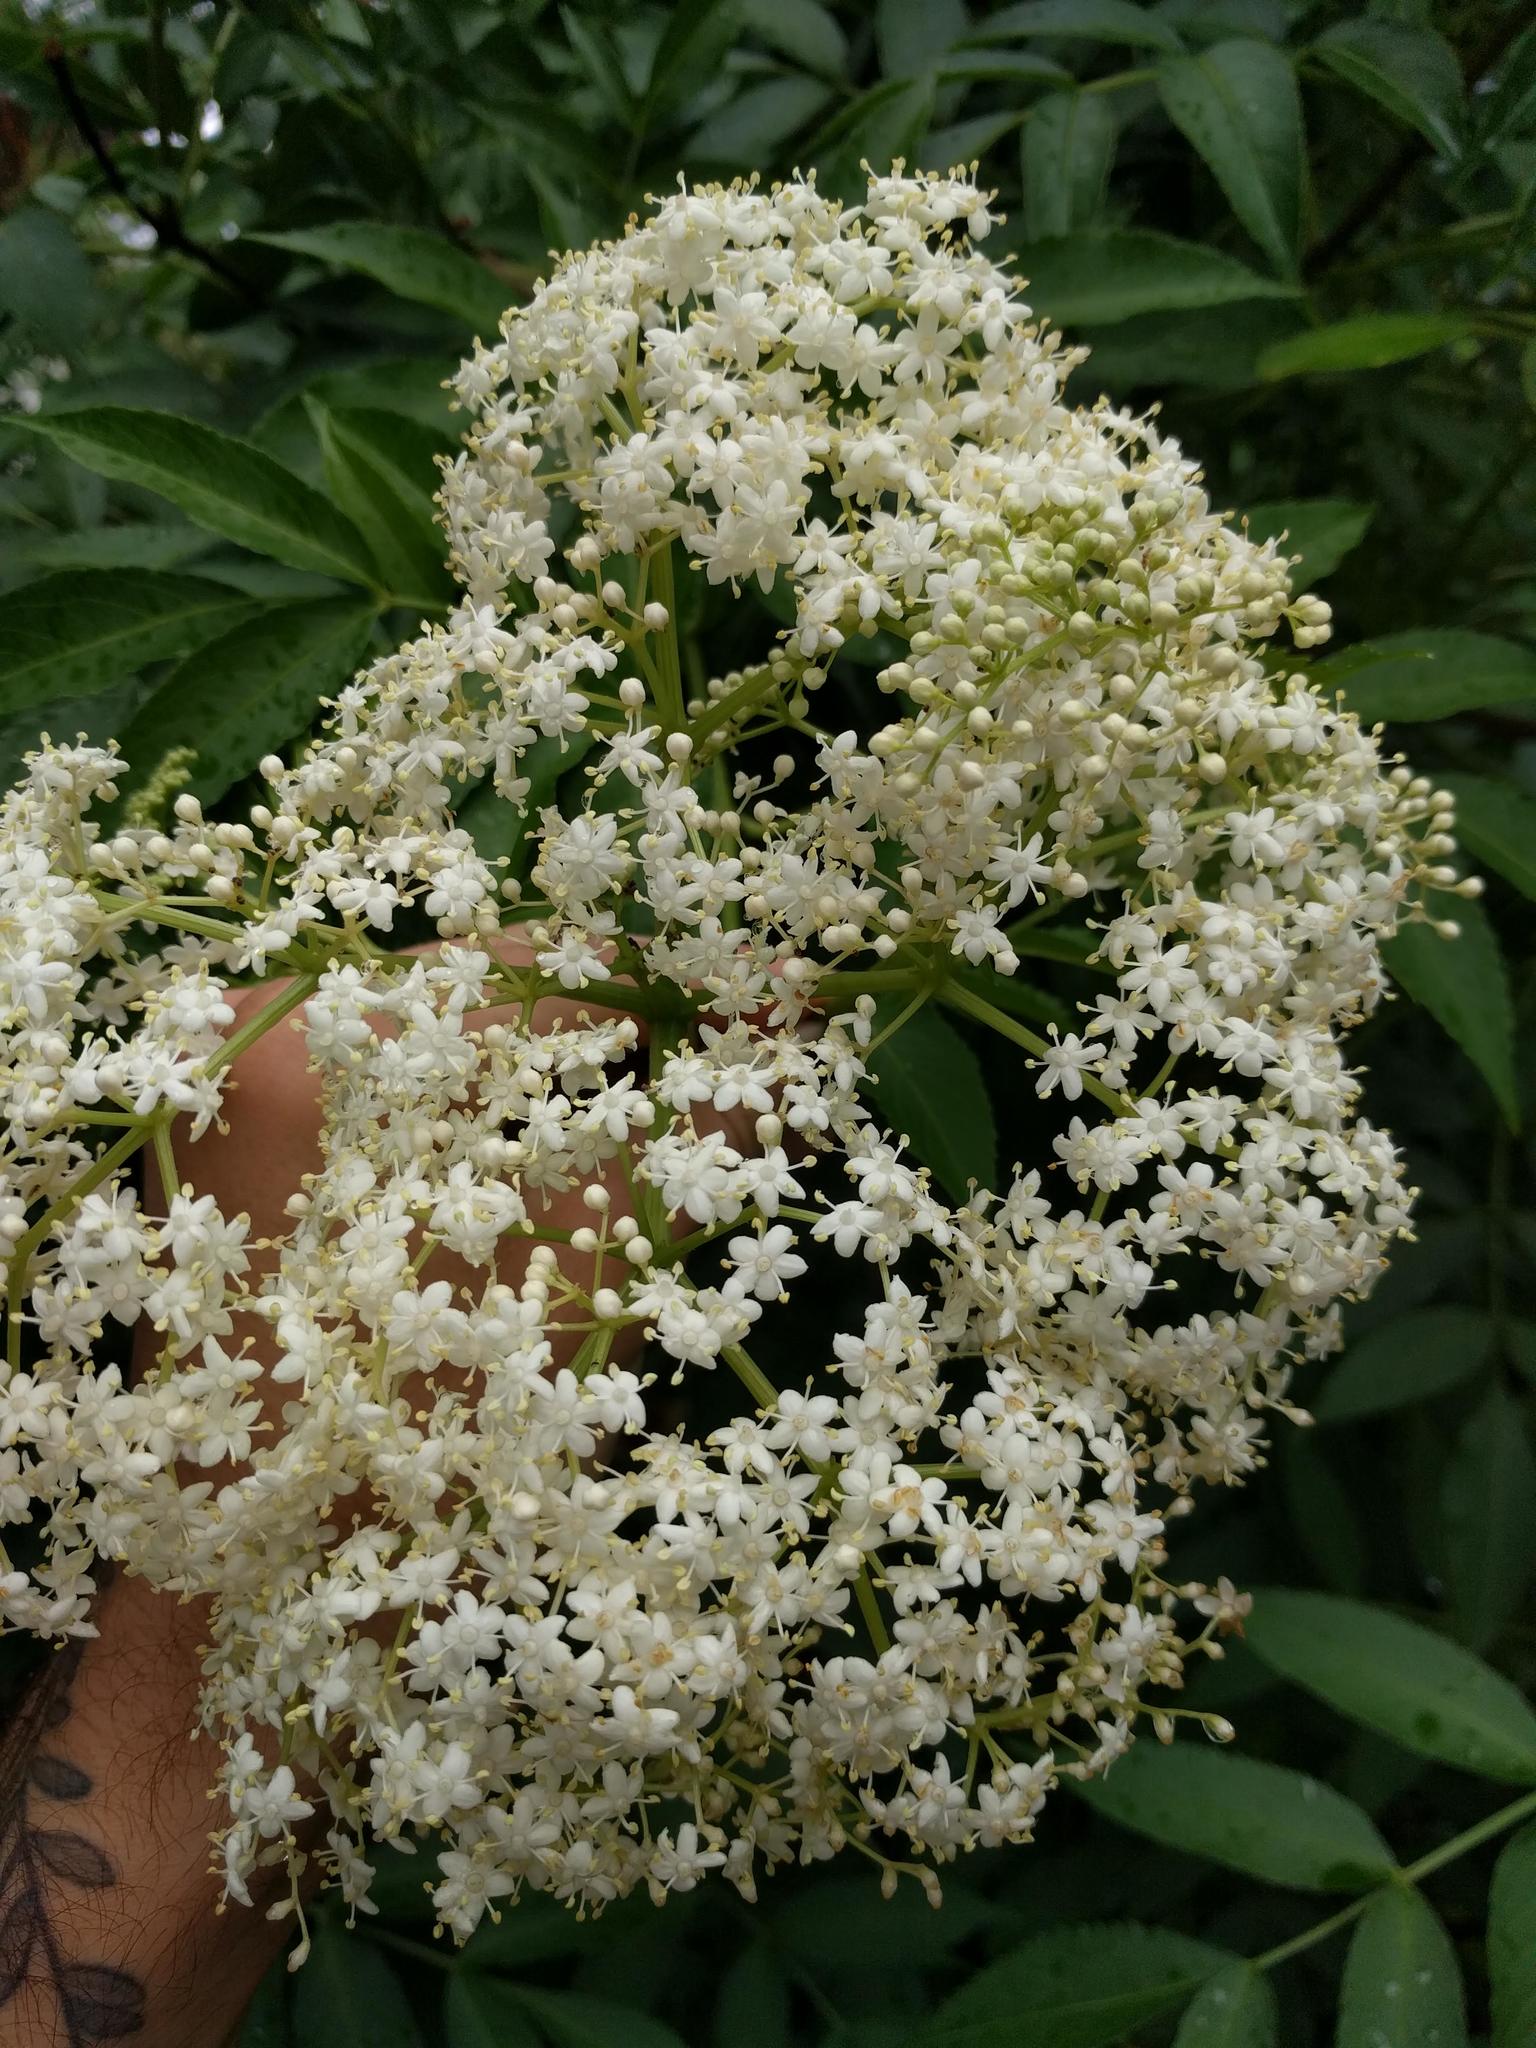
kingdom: Plantae
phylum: Tracheophyta
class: Magnoliopsida
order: Dipsacales
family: Viburnaceae
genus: Sambucus
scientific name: Sambucus cerulea
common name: Blue elder
